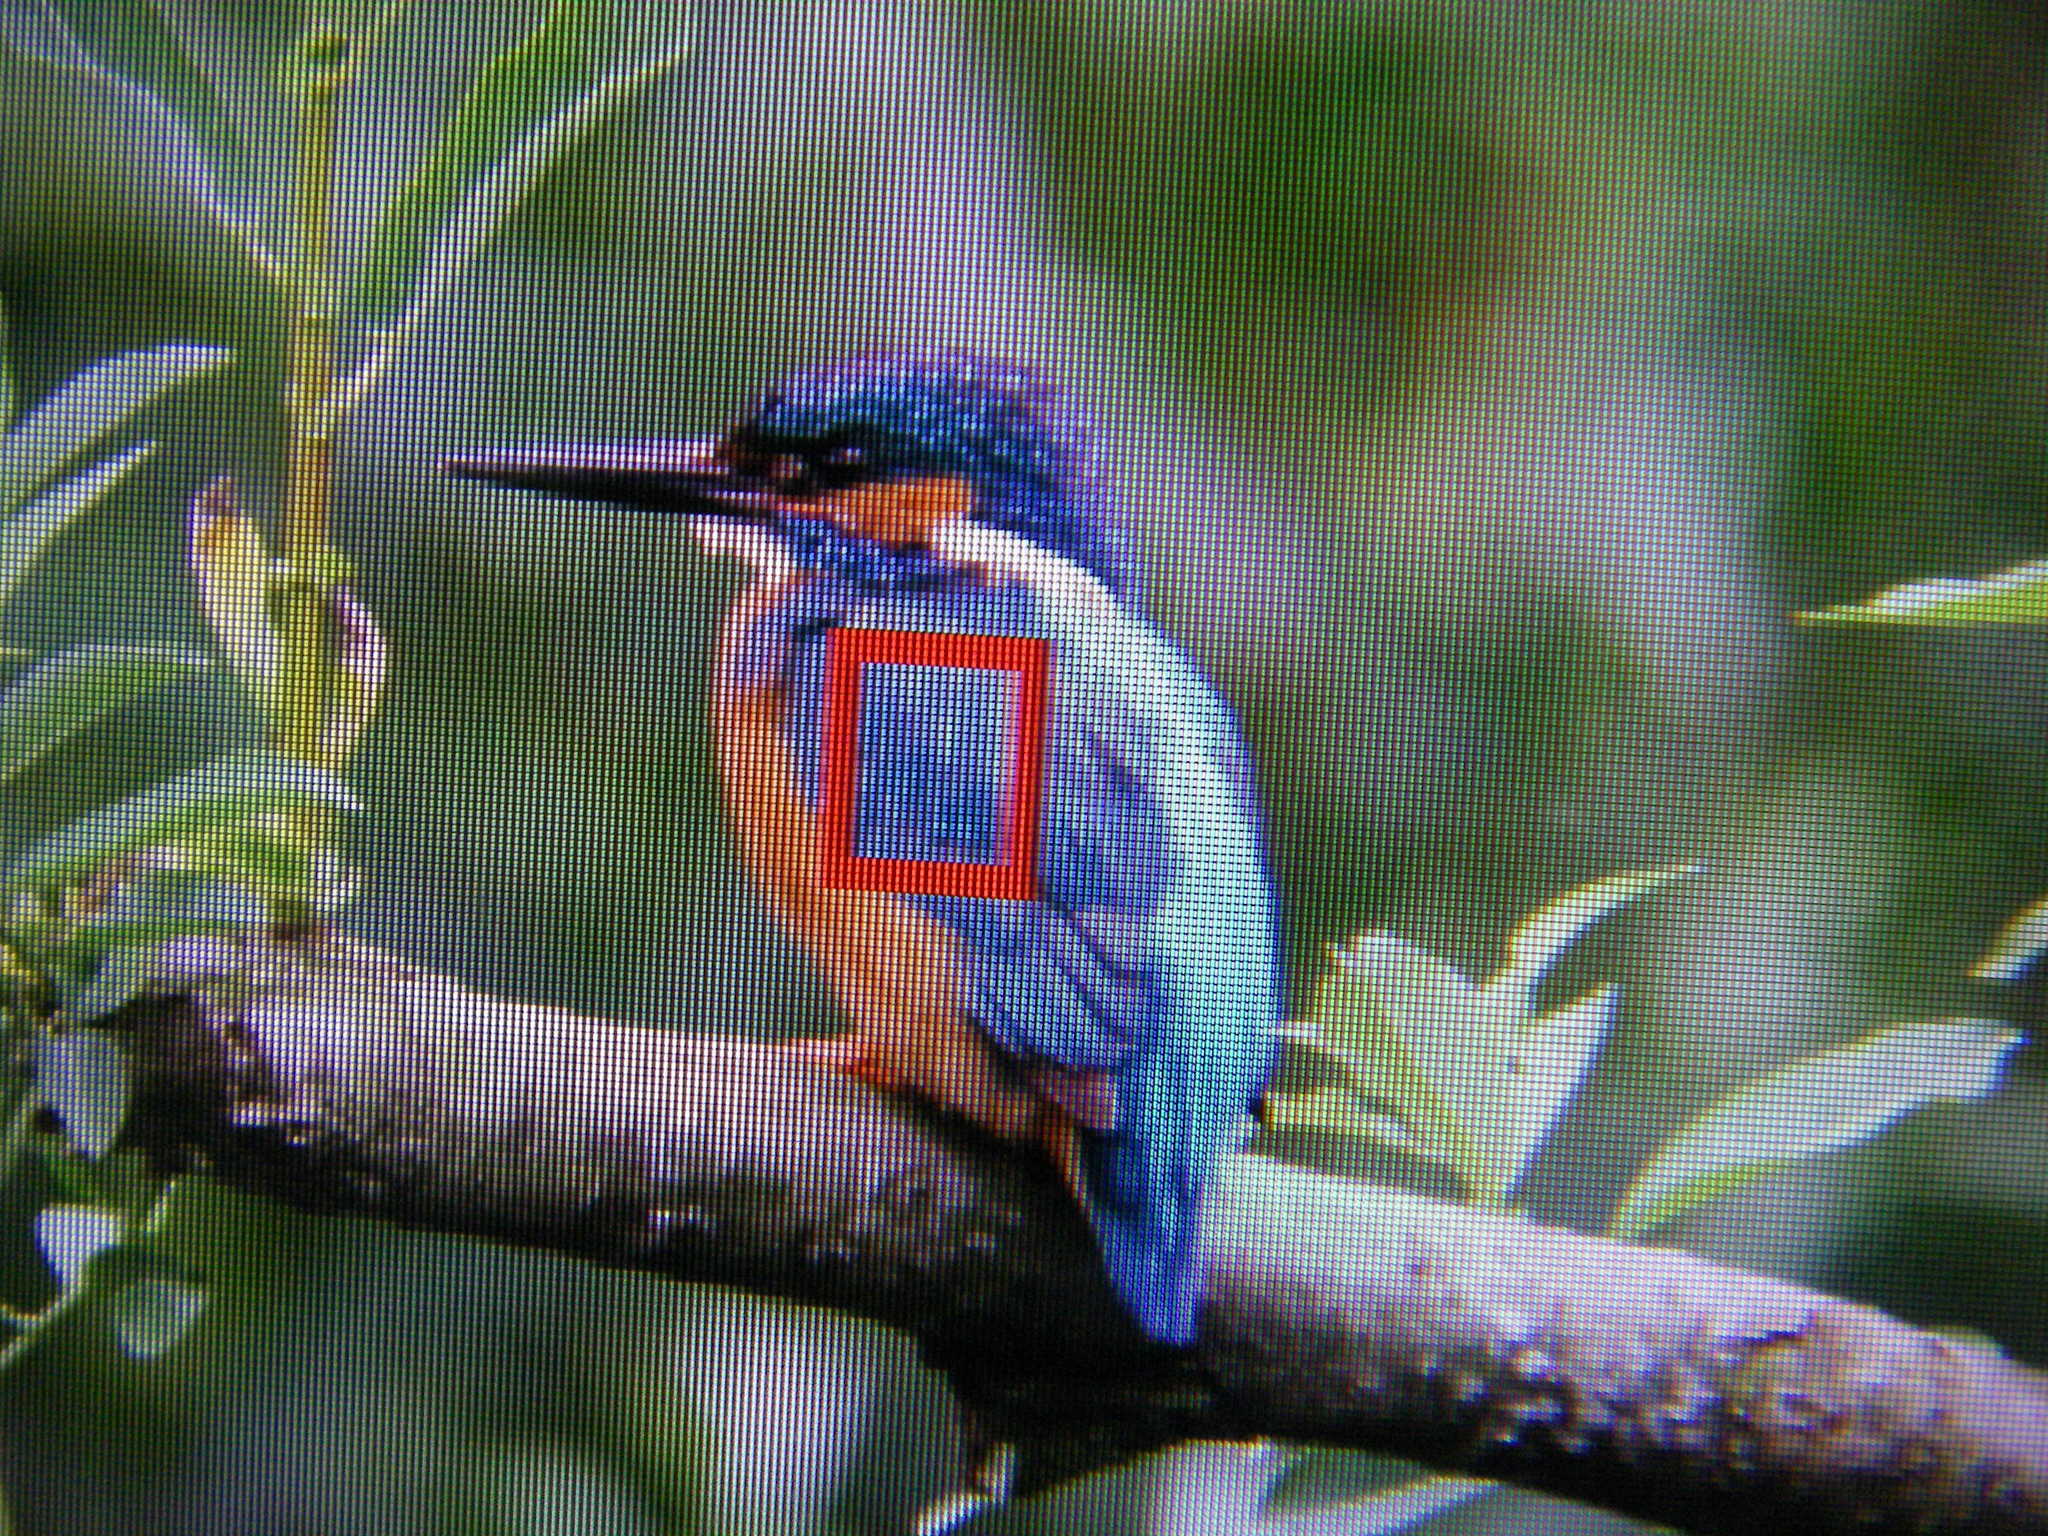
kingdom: Animalia
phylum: Chordata
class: Aves
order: Coraciiformes
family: Alcedinidae
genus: Alcedo
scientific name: Alcedo atthis
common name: Common kingfisher
